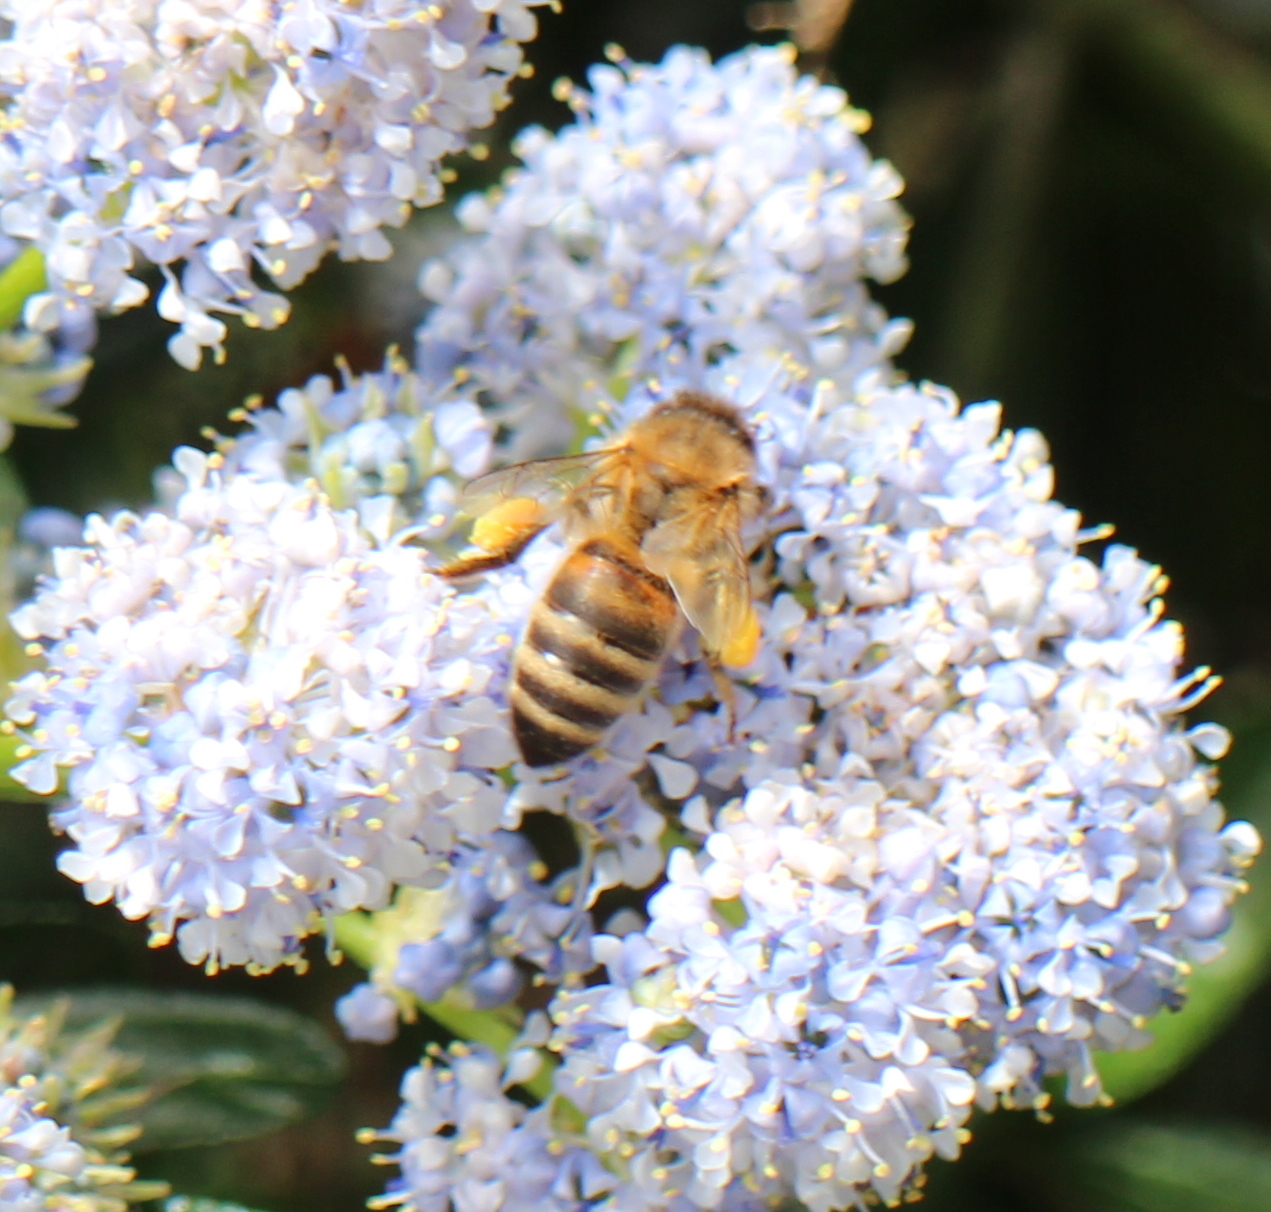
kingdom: Animalia
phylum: Arthropoda
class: Insecta
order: Hymenoptera
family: Apidae
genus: Apis
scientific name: Apis mellifera
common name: Honey bee
